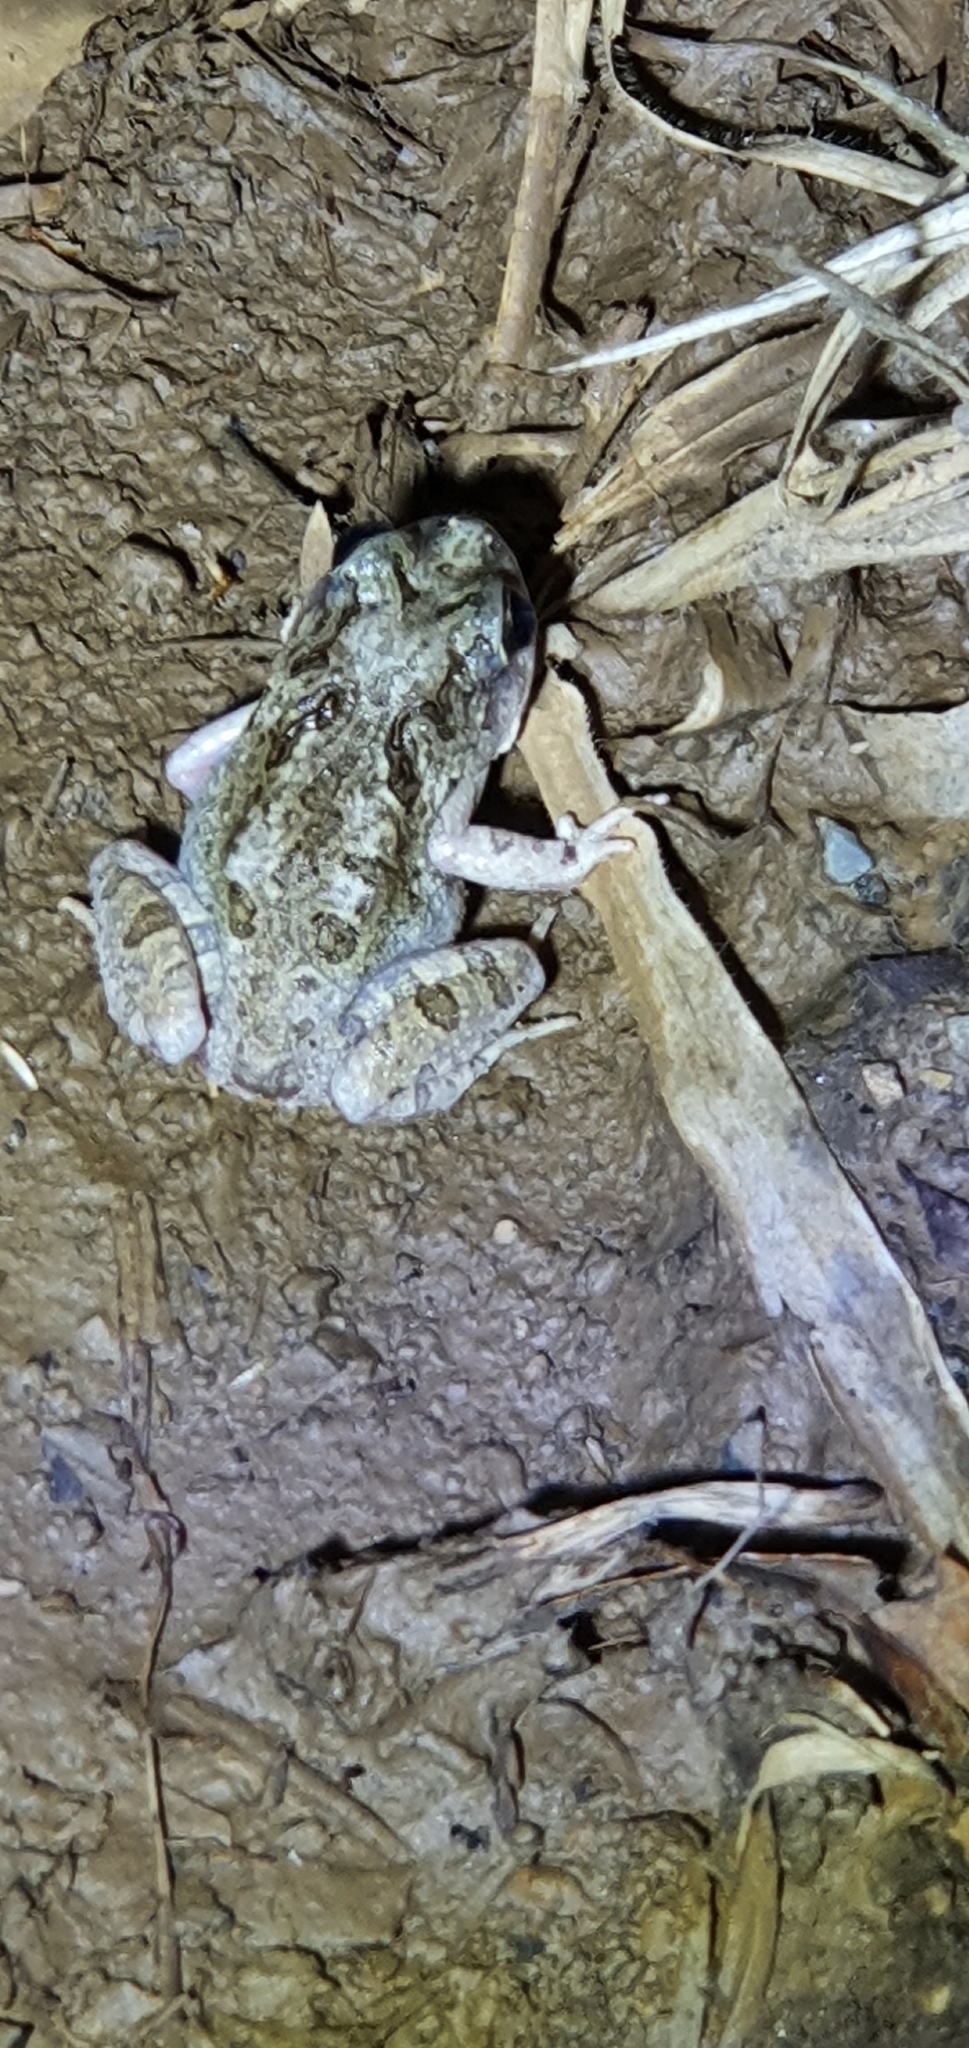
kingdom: Animalia
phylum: Chordata
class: Amphibia
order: Anura
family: Limnodynastidae
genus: Platyplectrum
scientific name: Platyplectrum ornatum
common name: Ornate burrowing frog
